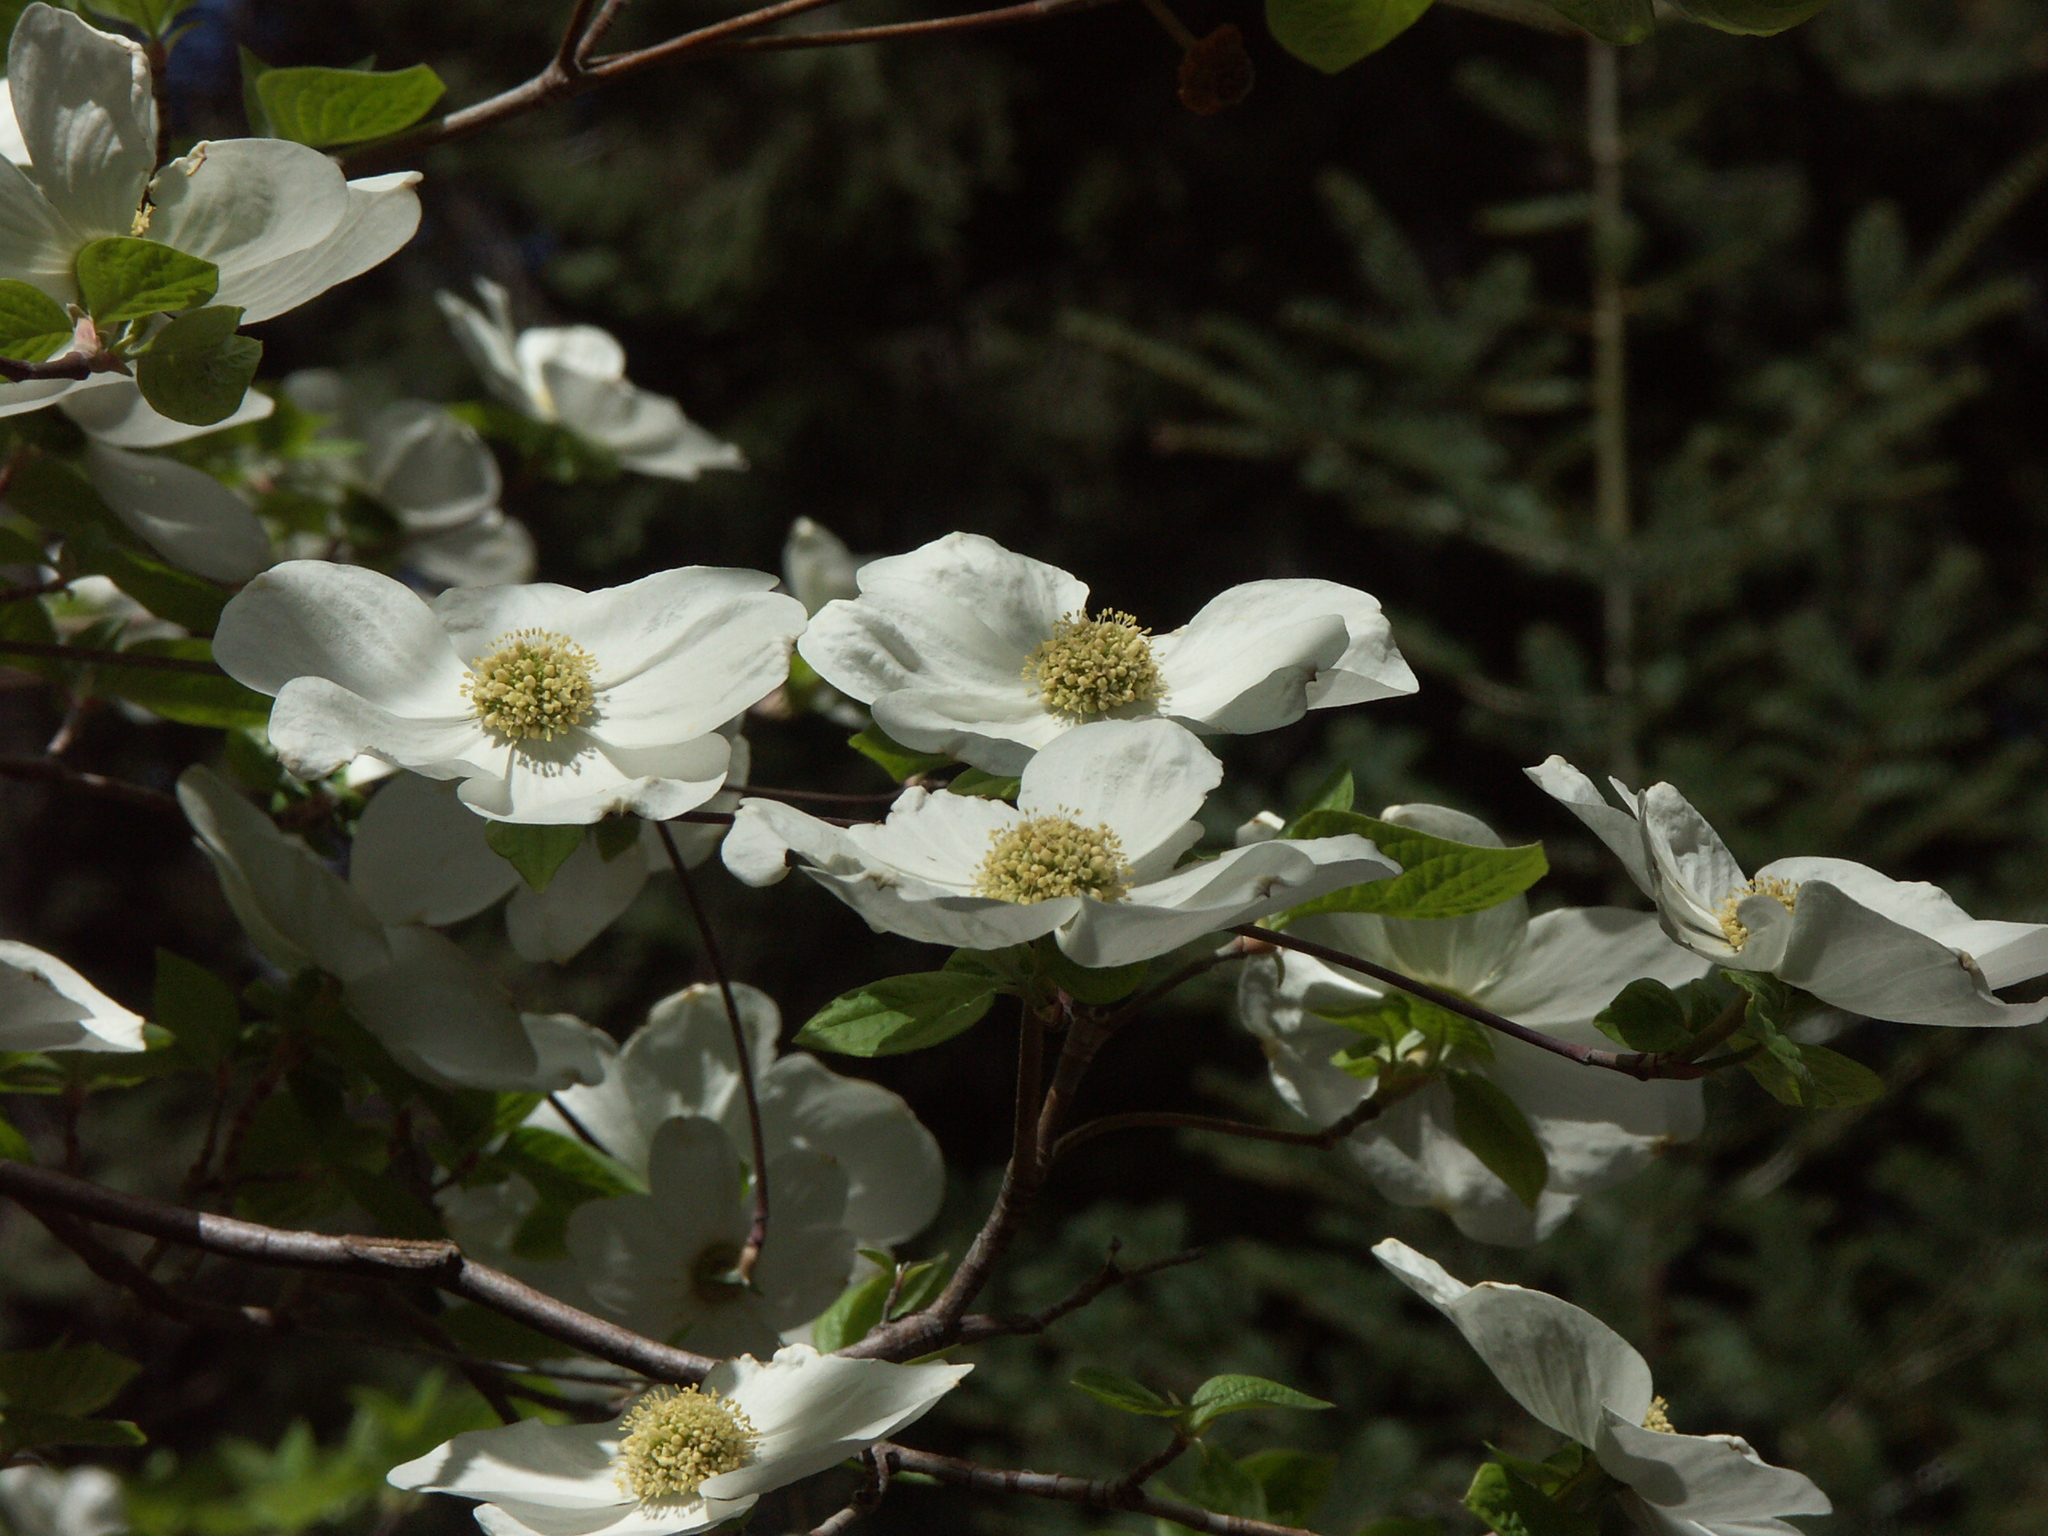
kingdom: Plantae
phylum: Tracheophyta
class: Magnoliopsida
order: Cornales
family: Cornaceae
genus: Cornus
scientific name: Cornus nuttallii
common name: Pacific dogwood
